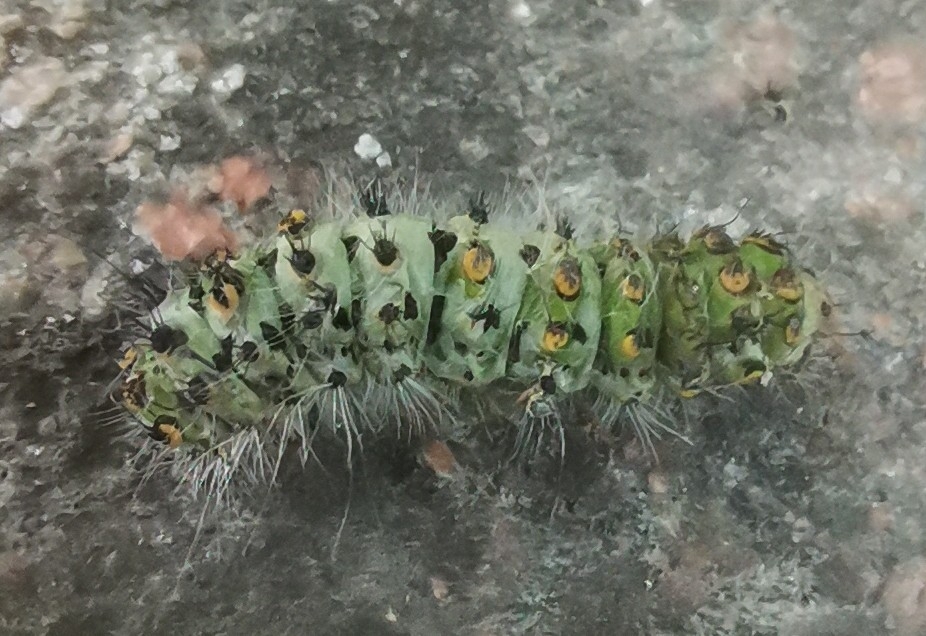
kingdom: Animalia
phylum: Arthropoda
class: Insecta
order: Lepidoptera
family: Saturniidae
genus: Saturnia
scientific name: Saturnia pavonia
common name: Emperor moth
